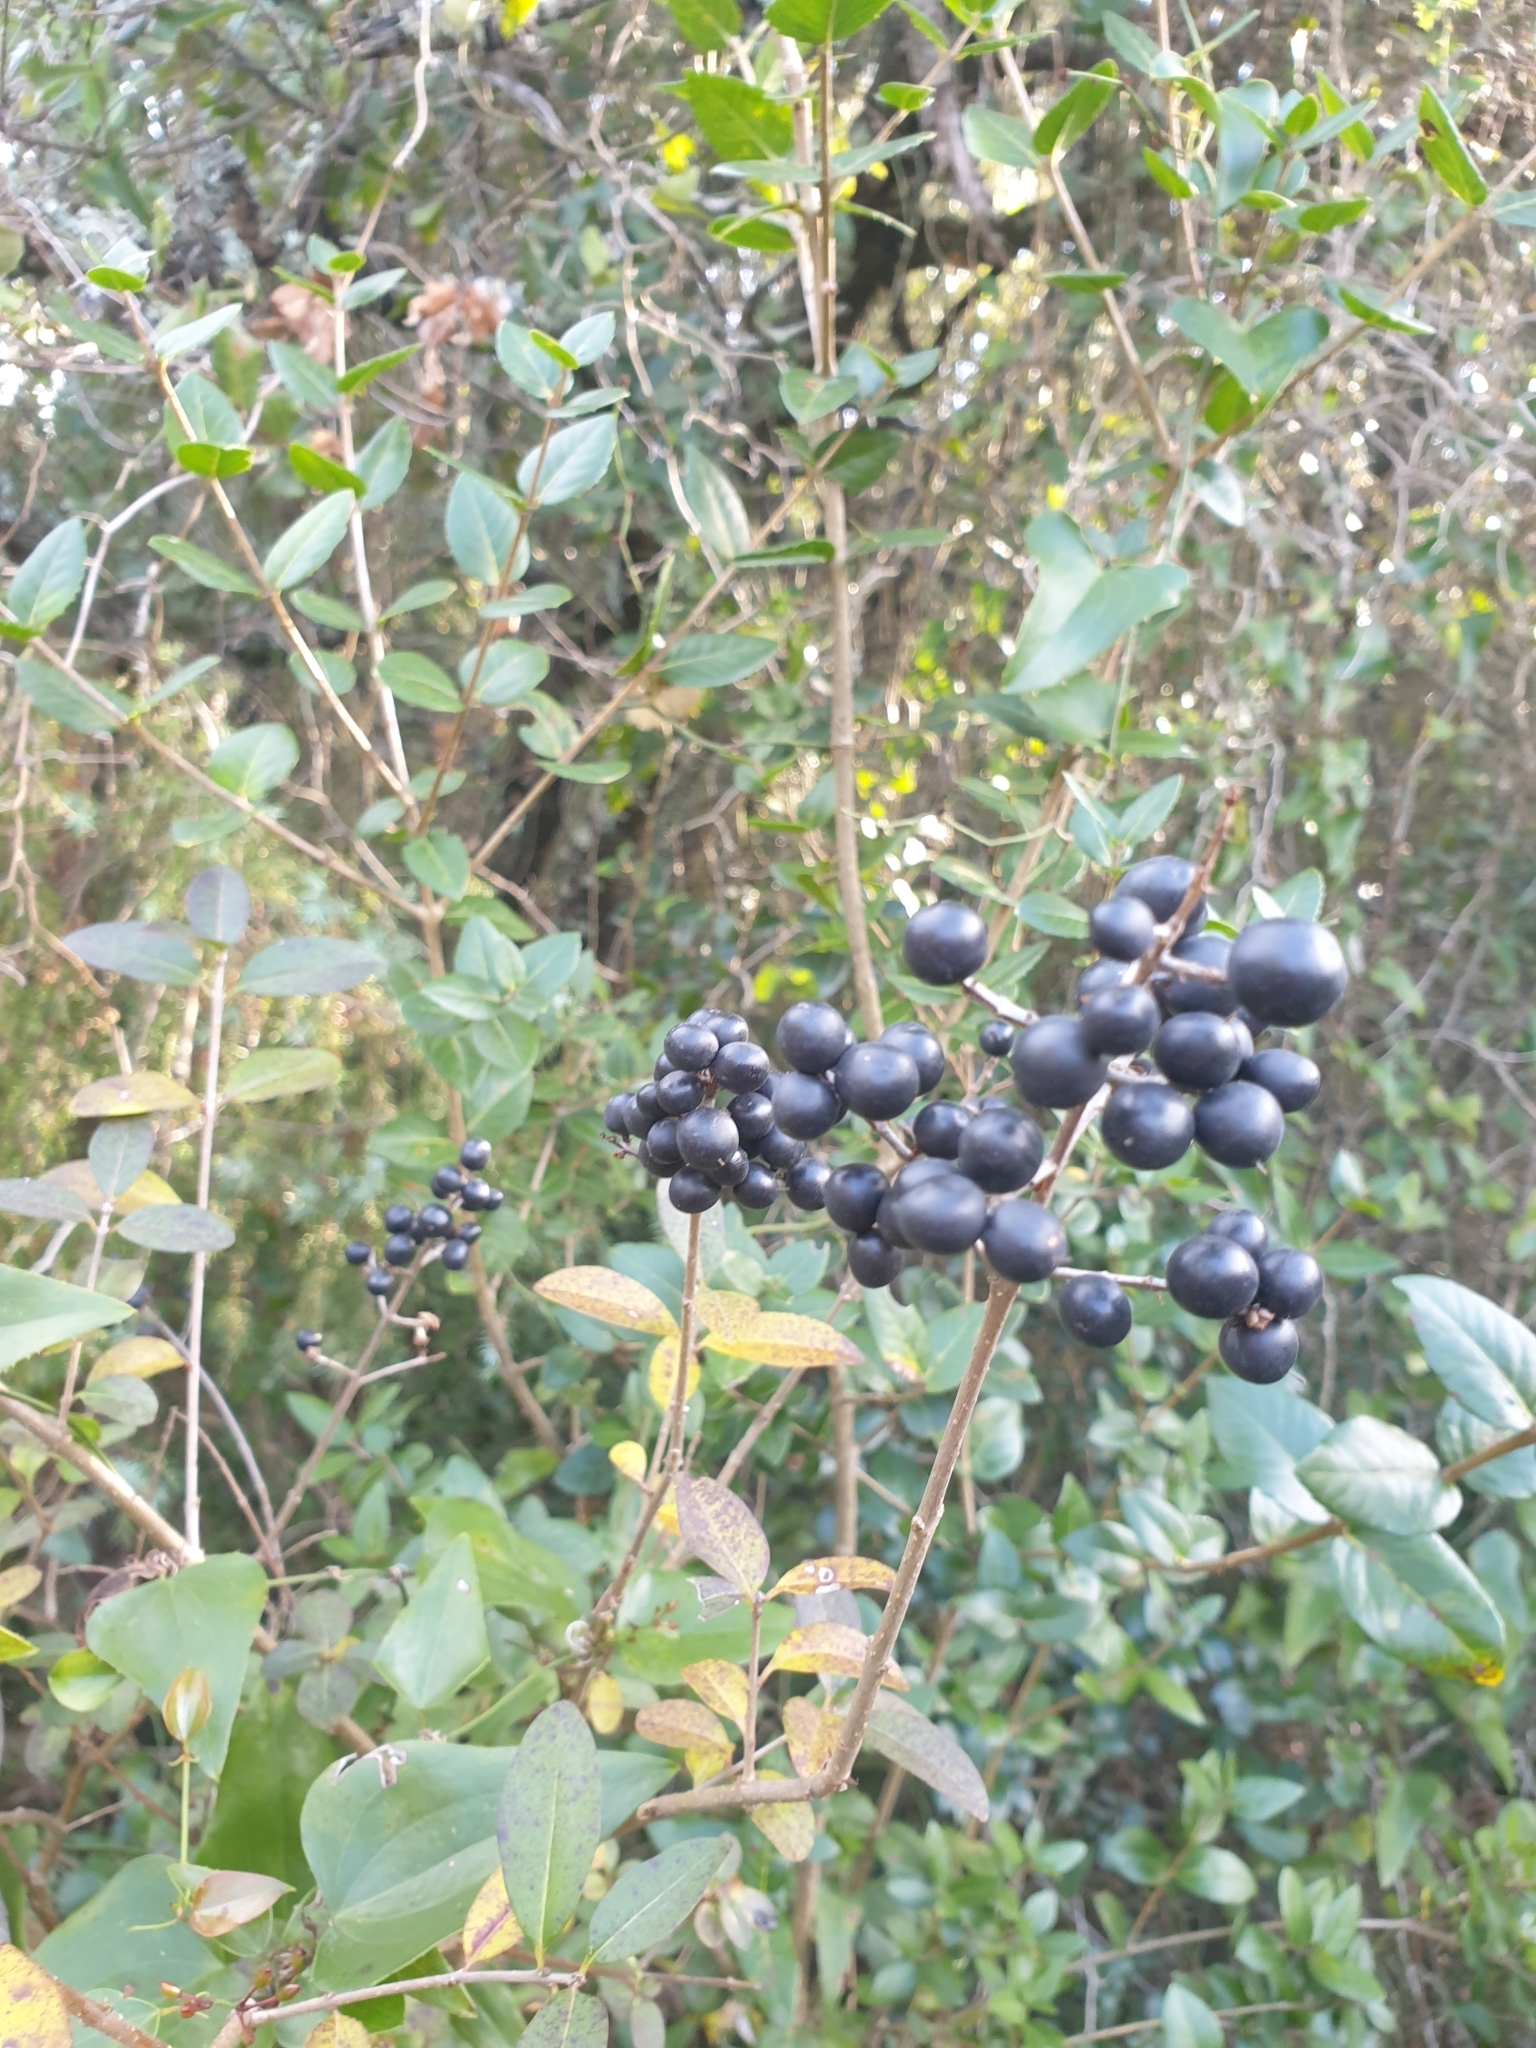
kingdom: Plantae
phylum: Tracheophyta
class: Magnoliopsida
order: Lamiales
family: Oleaceae
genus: Ligustrum
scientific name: Ligustrum vulgare
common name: Wild privet
